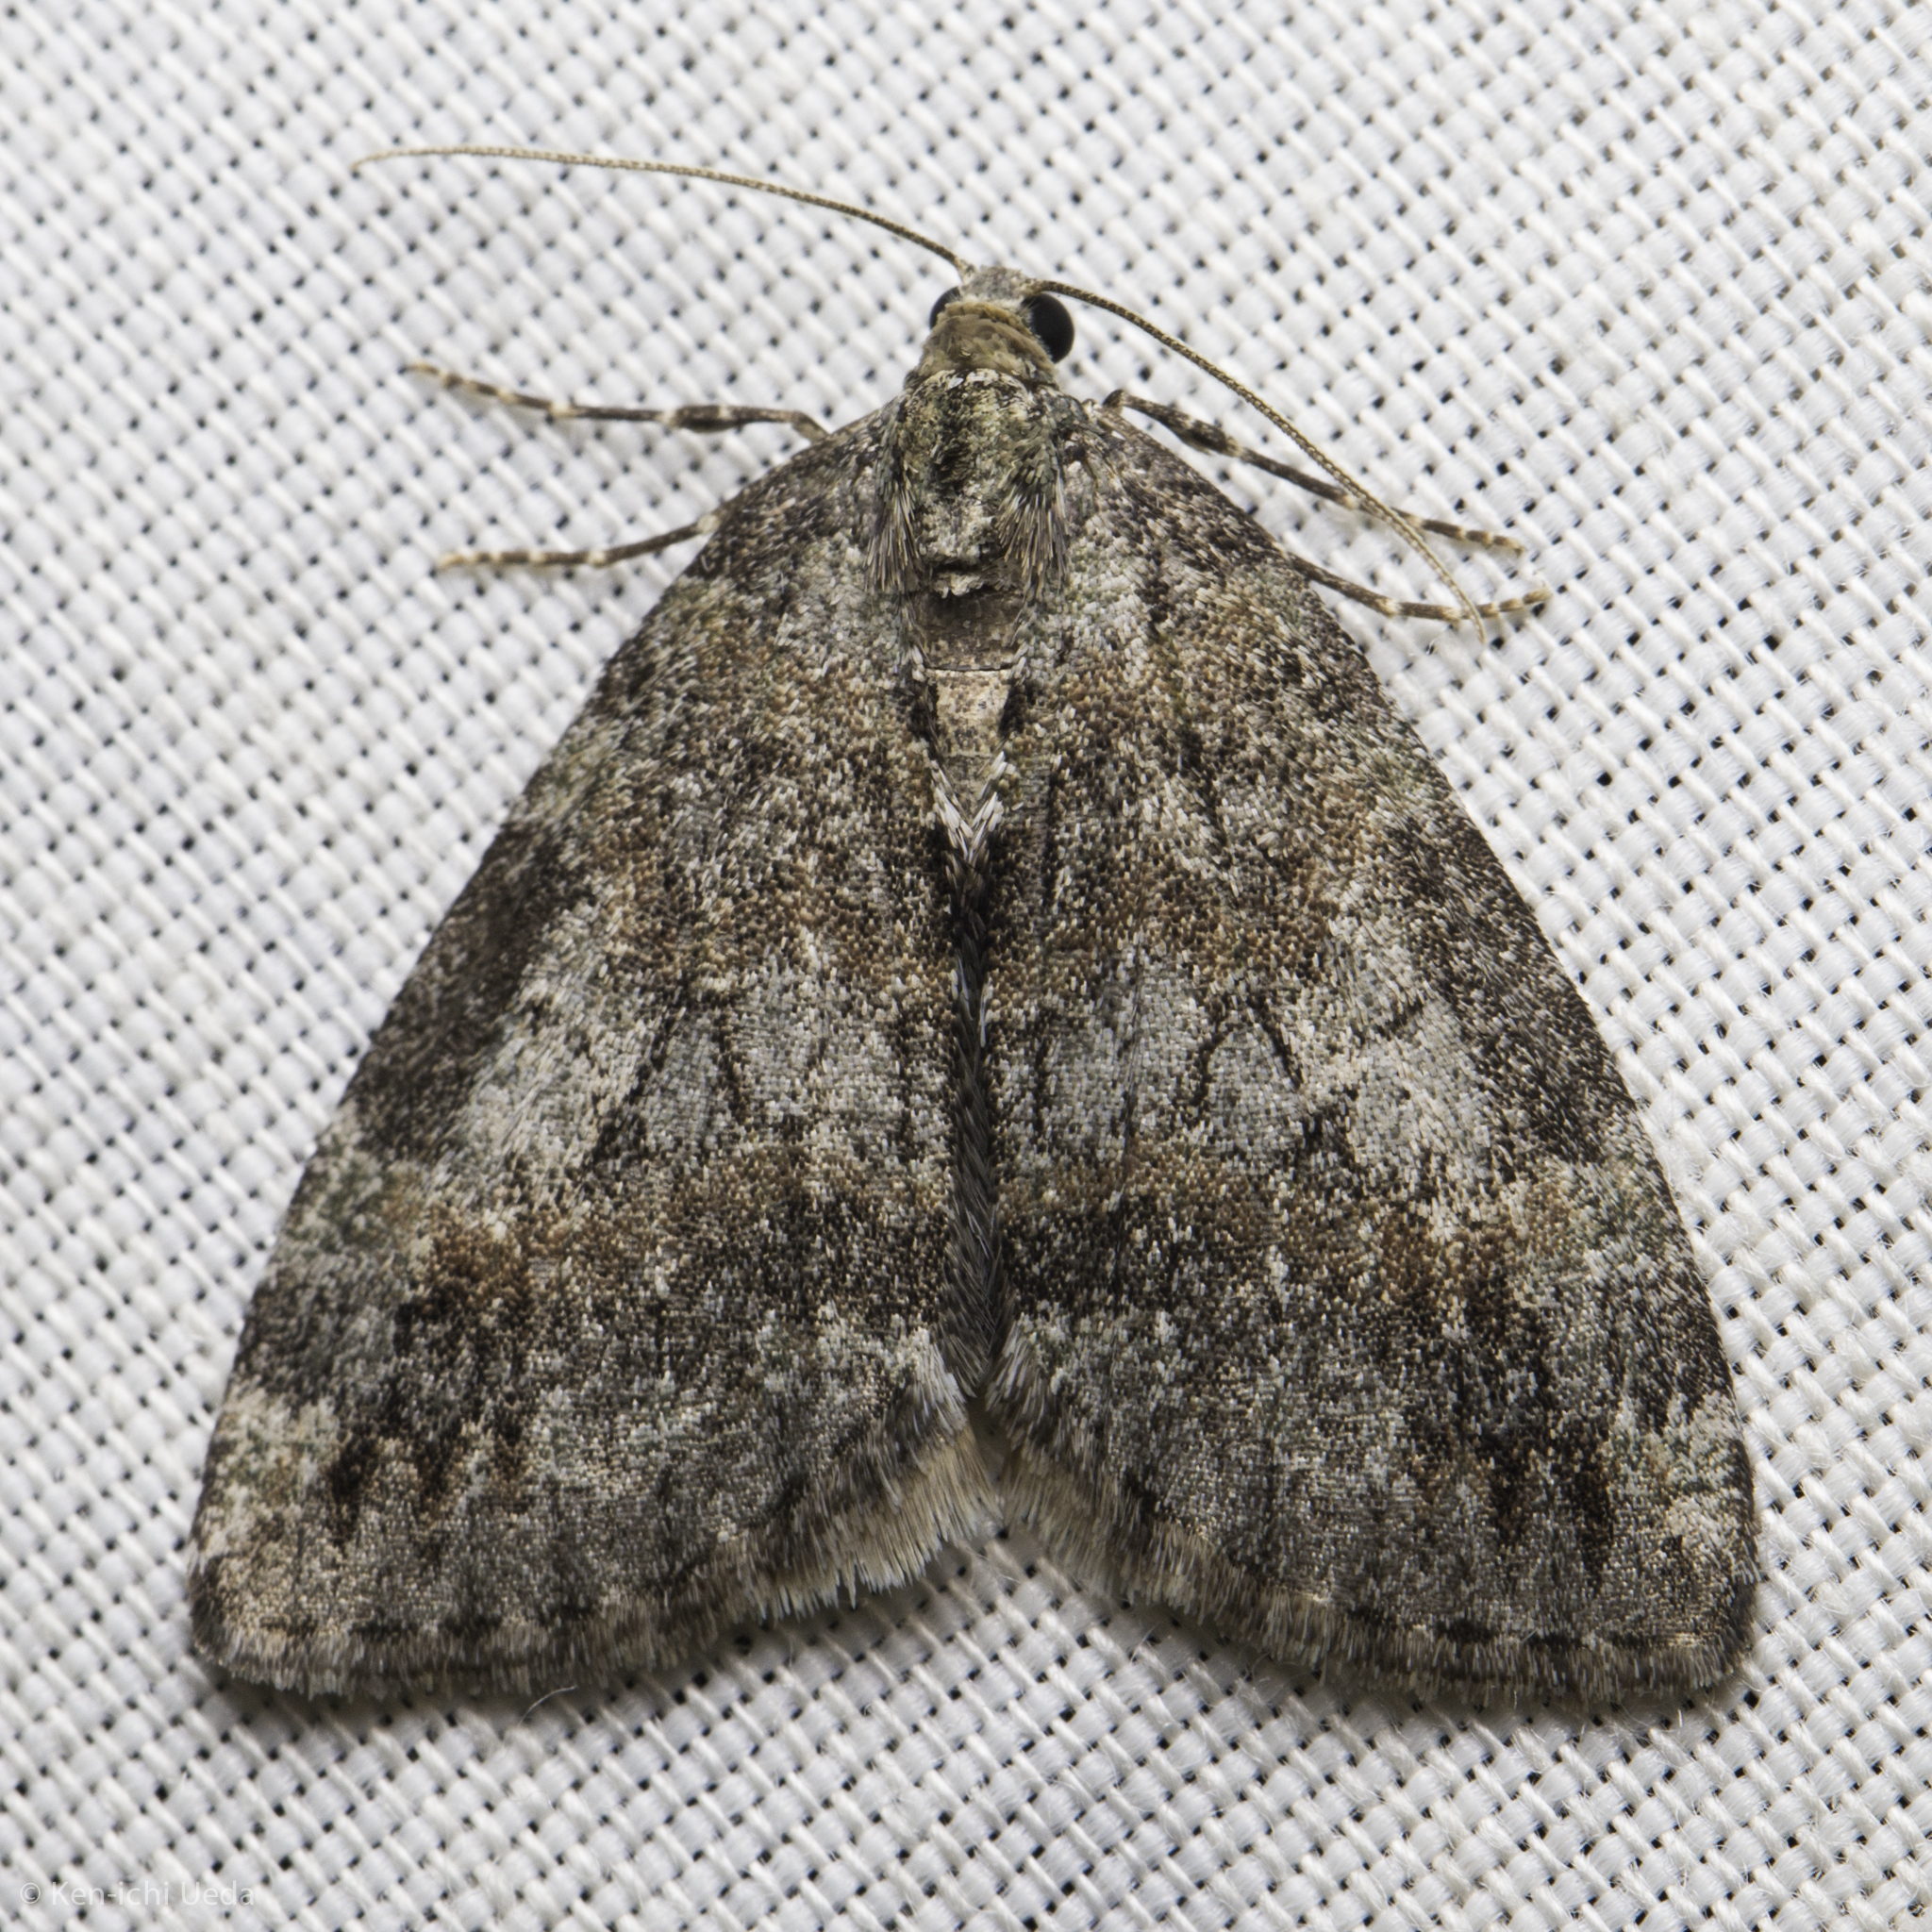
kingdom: Animalia
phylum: Arthropoda
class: Insecta
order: Lepidoptera
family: Geometridae
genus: Hydriomena
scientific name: Hydriomena nubilofasciata
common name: Oak winter highflier moth
